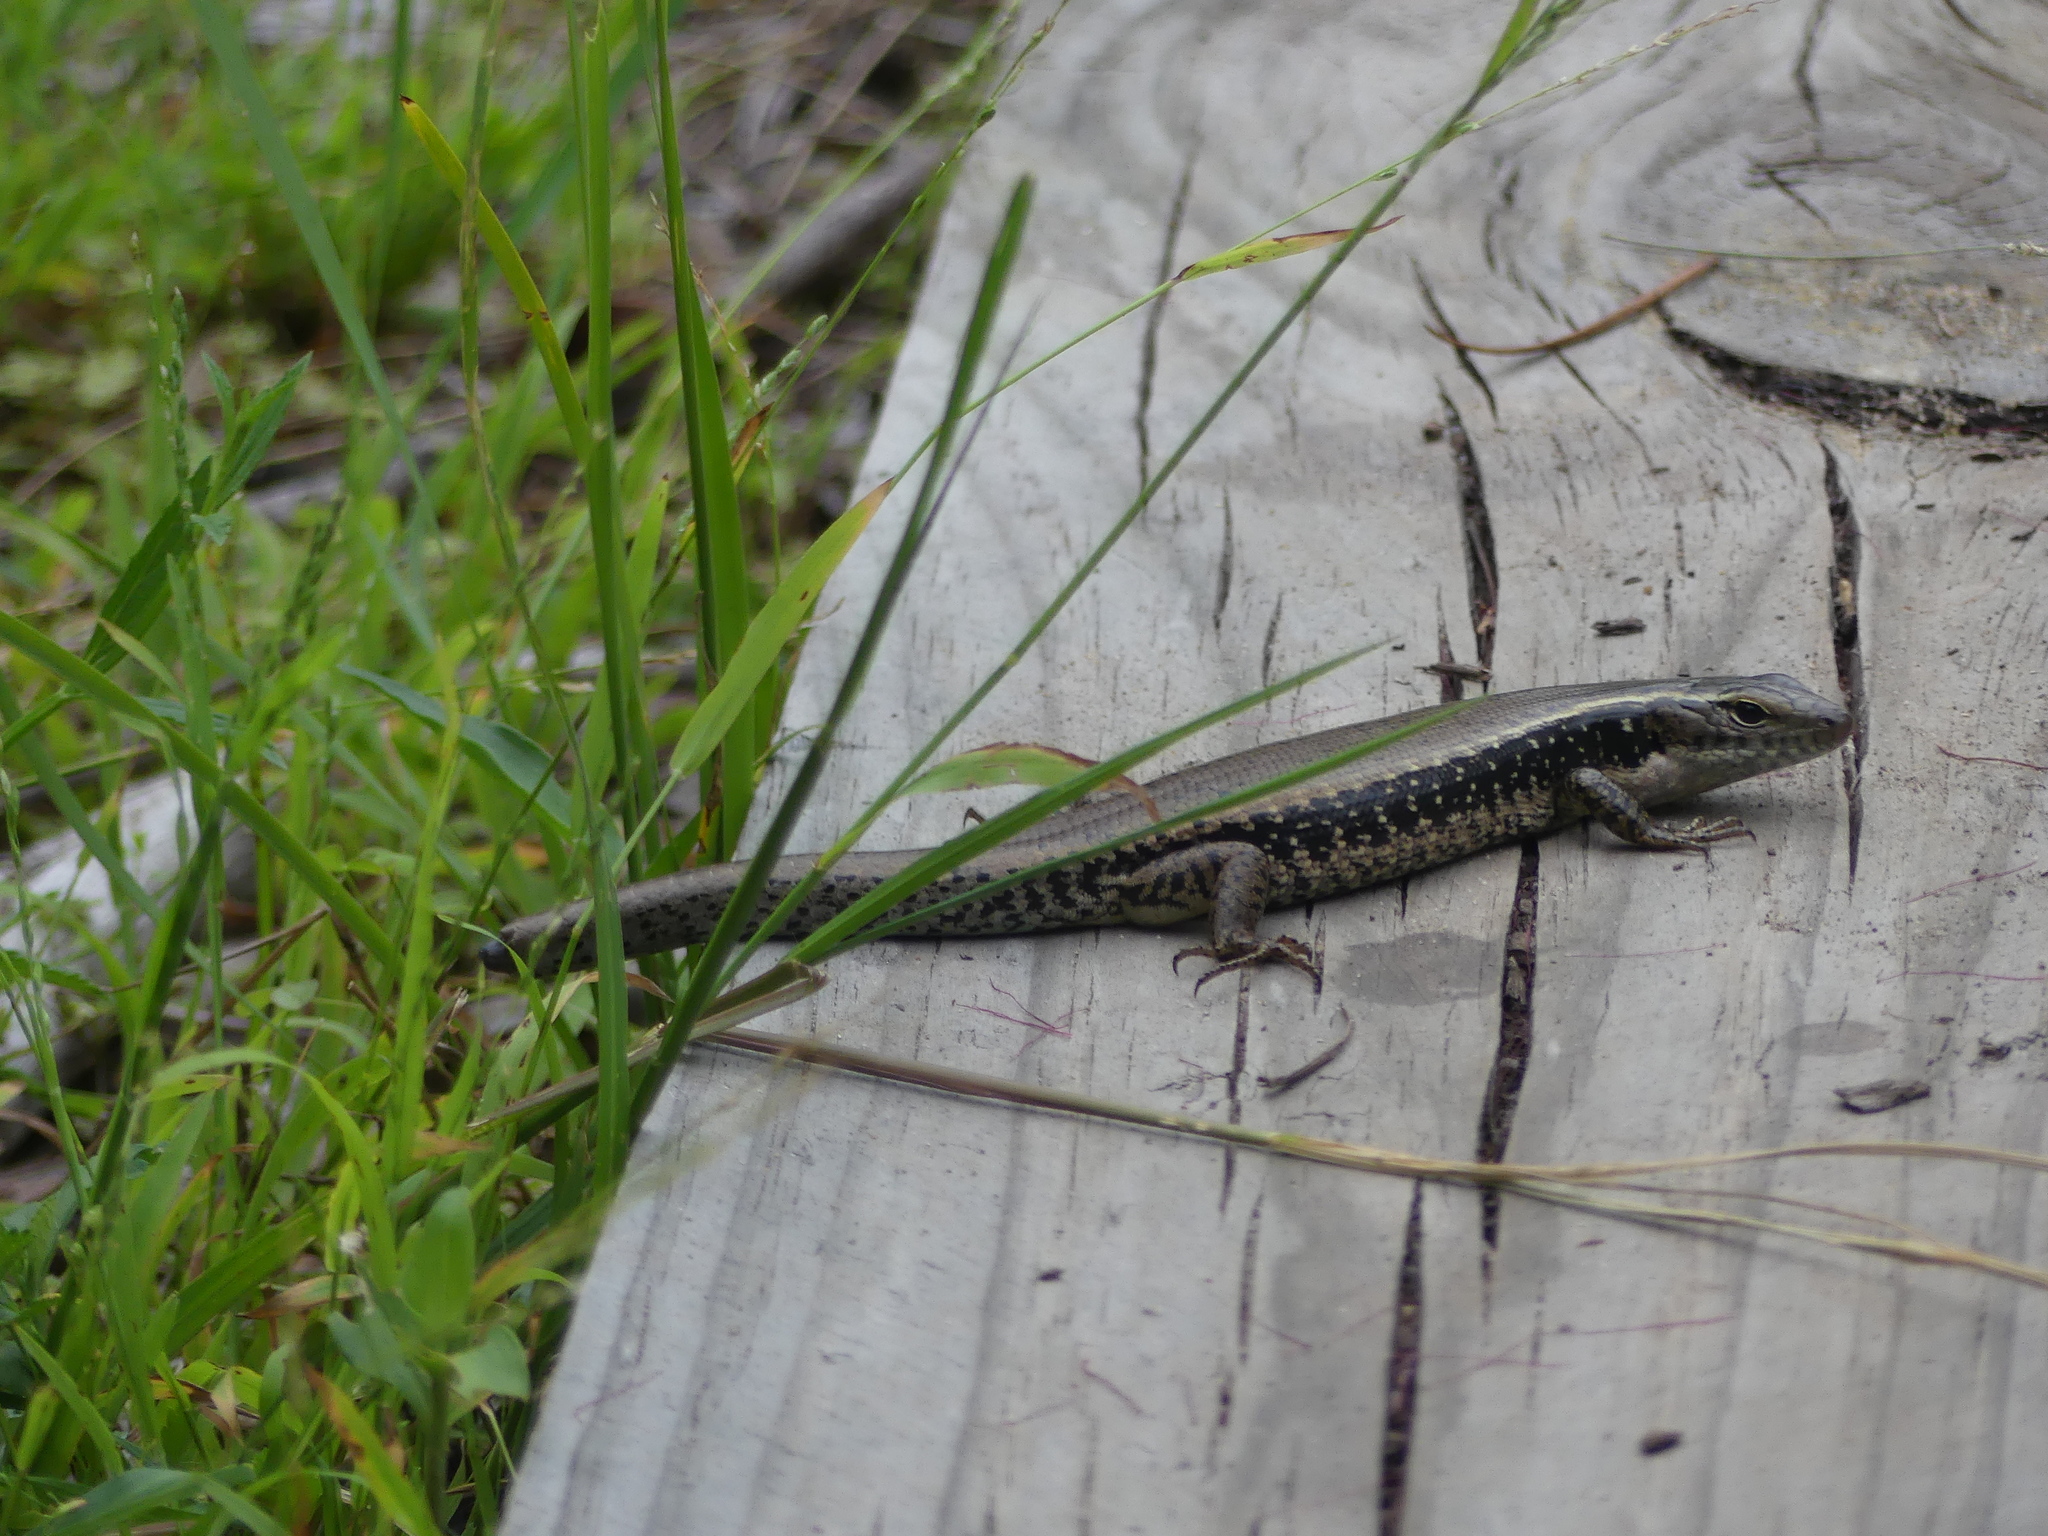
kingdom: Animalia
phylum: Chordata
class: Squamata
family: Scincidae
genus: Eulamprus
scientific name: Eulamprus quoyii
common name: Eastern water skink
